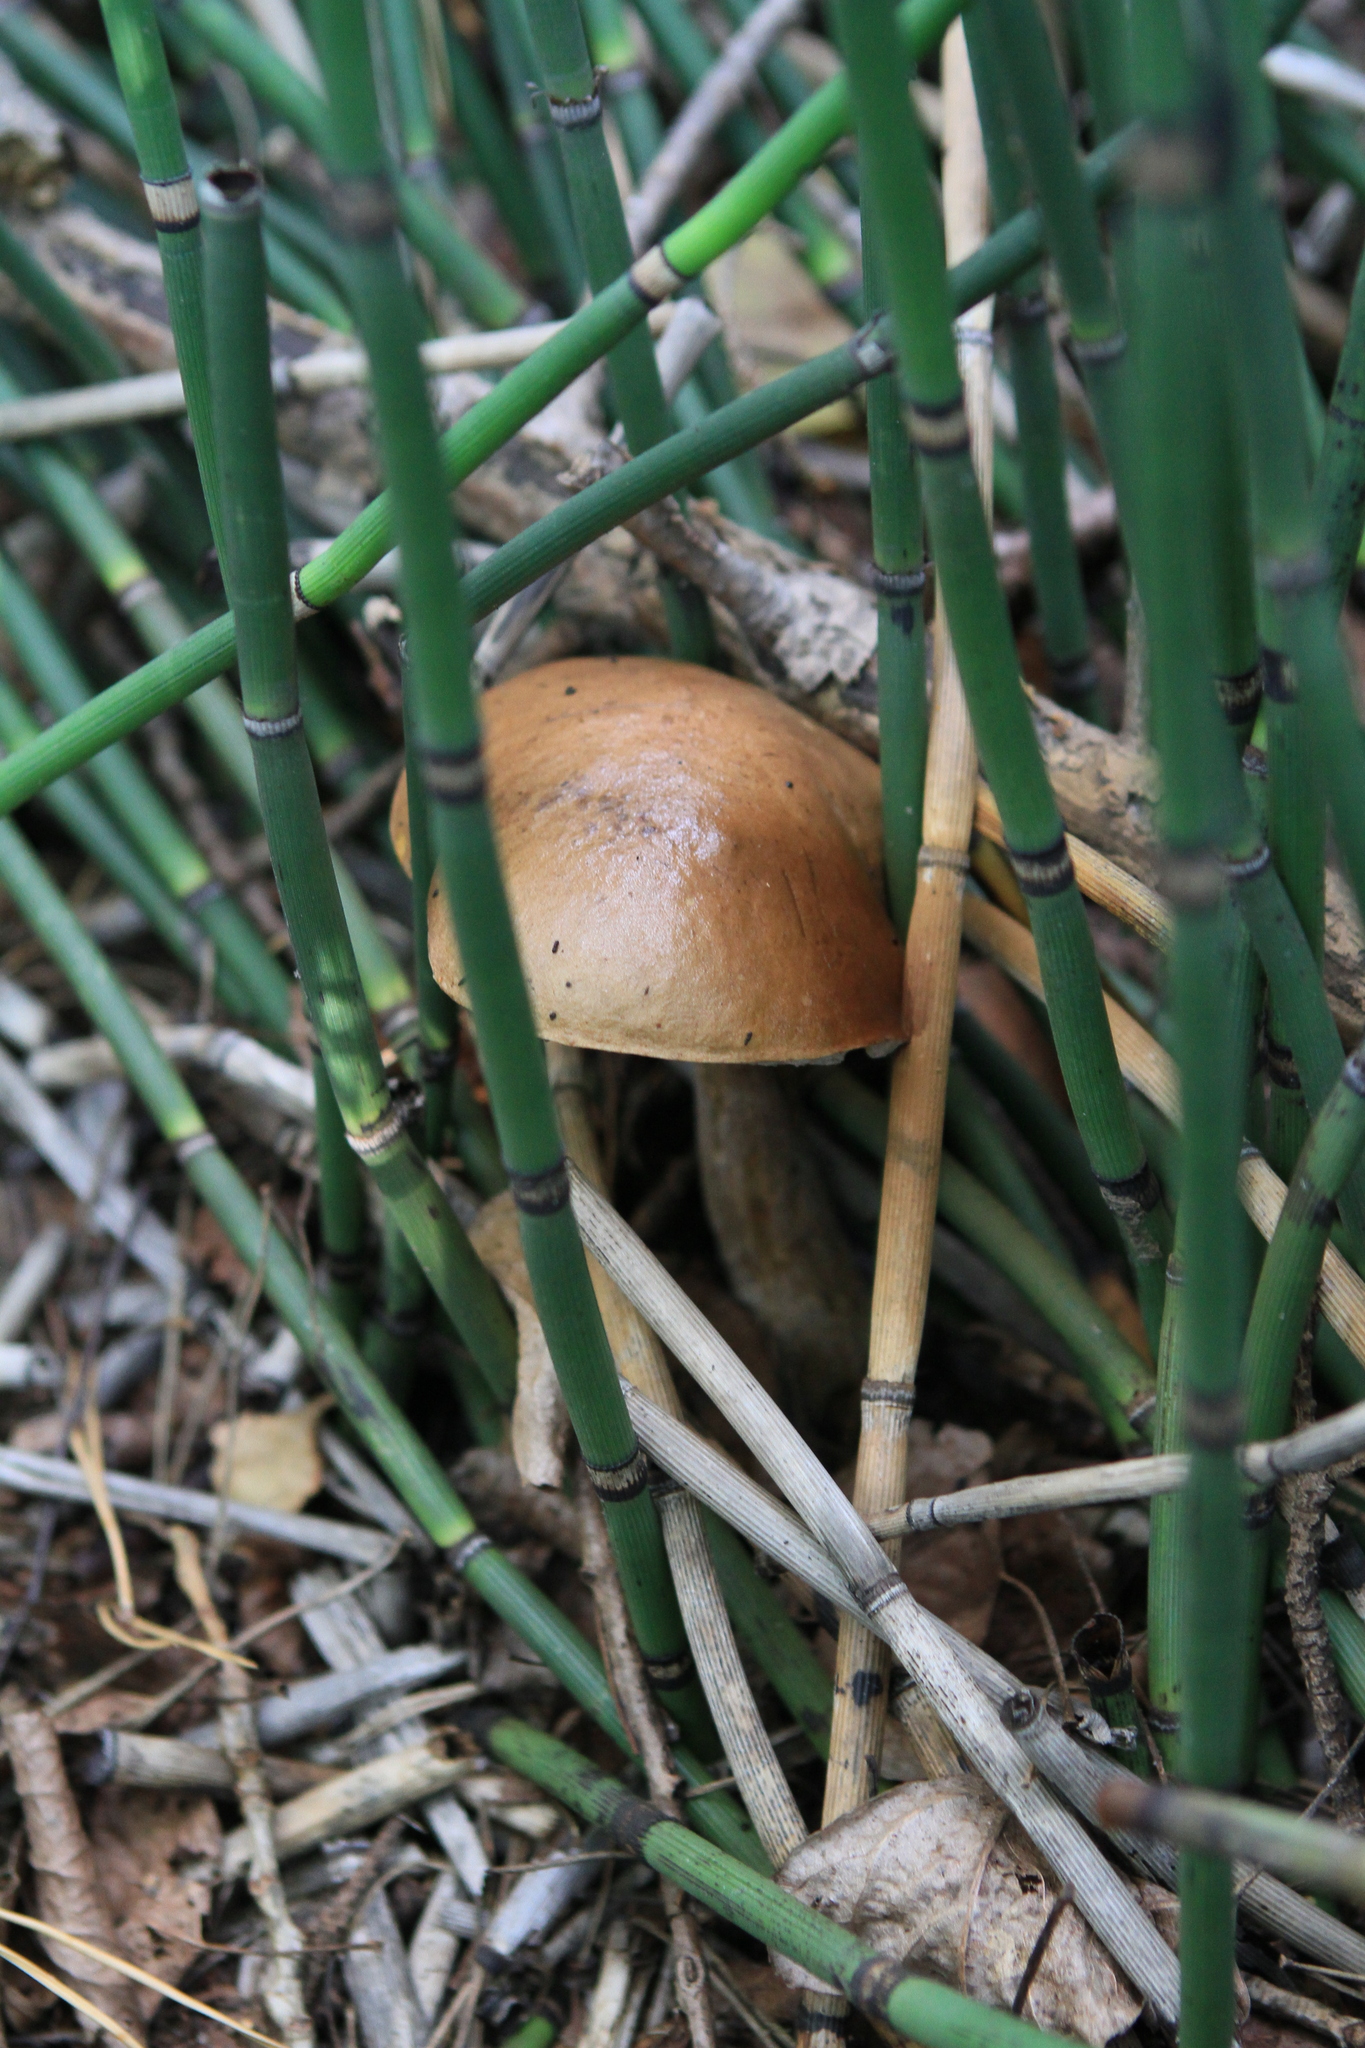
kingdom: Plantae
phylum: Tracheophyta
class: Polypodiopsida
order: Equisetales
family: Equisetaceae
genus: Equisetum
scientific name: Equisetum hyemale
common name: Rough horsetail
